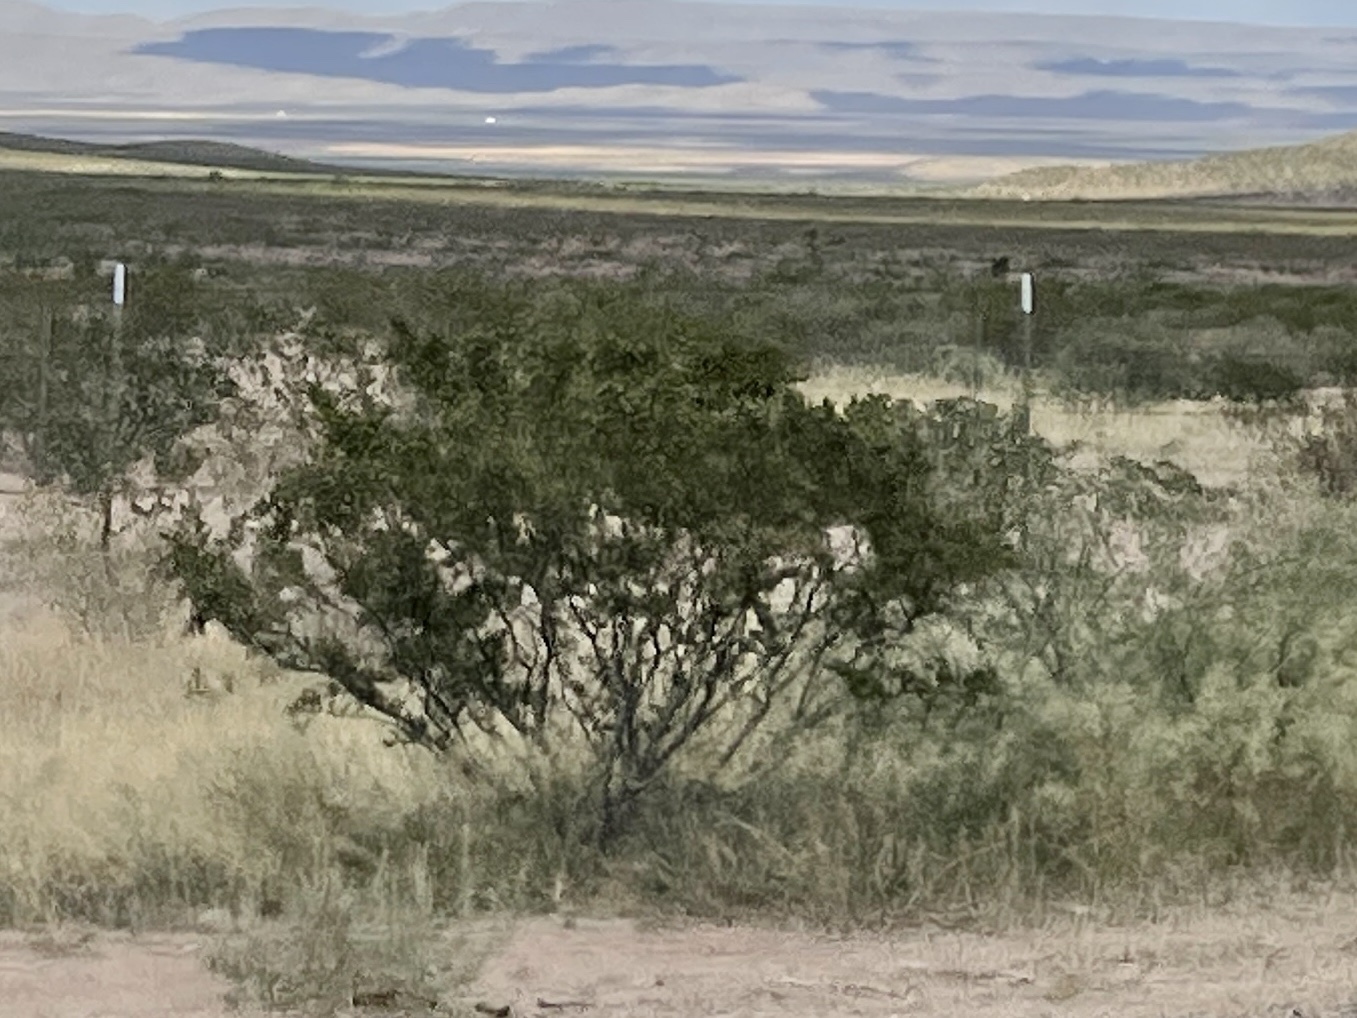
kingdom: Plantae
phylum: Tracheophyta
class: Magnoliopsida
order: Zygophyllales
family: Zygophyllaceae
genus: Larrea
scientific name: Larrea tridentata
